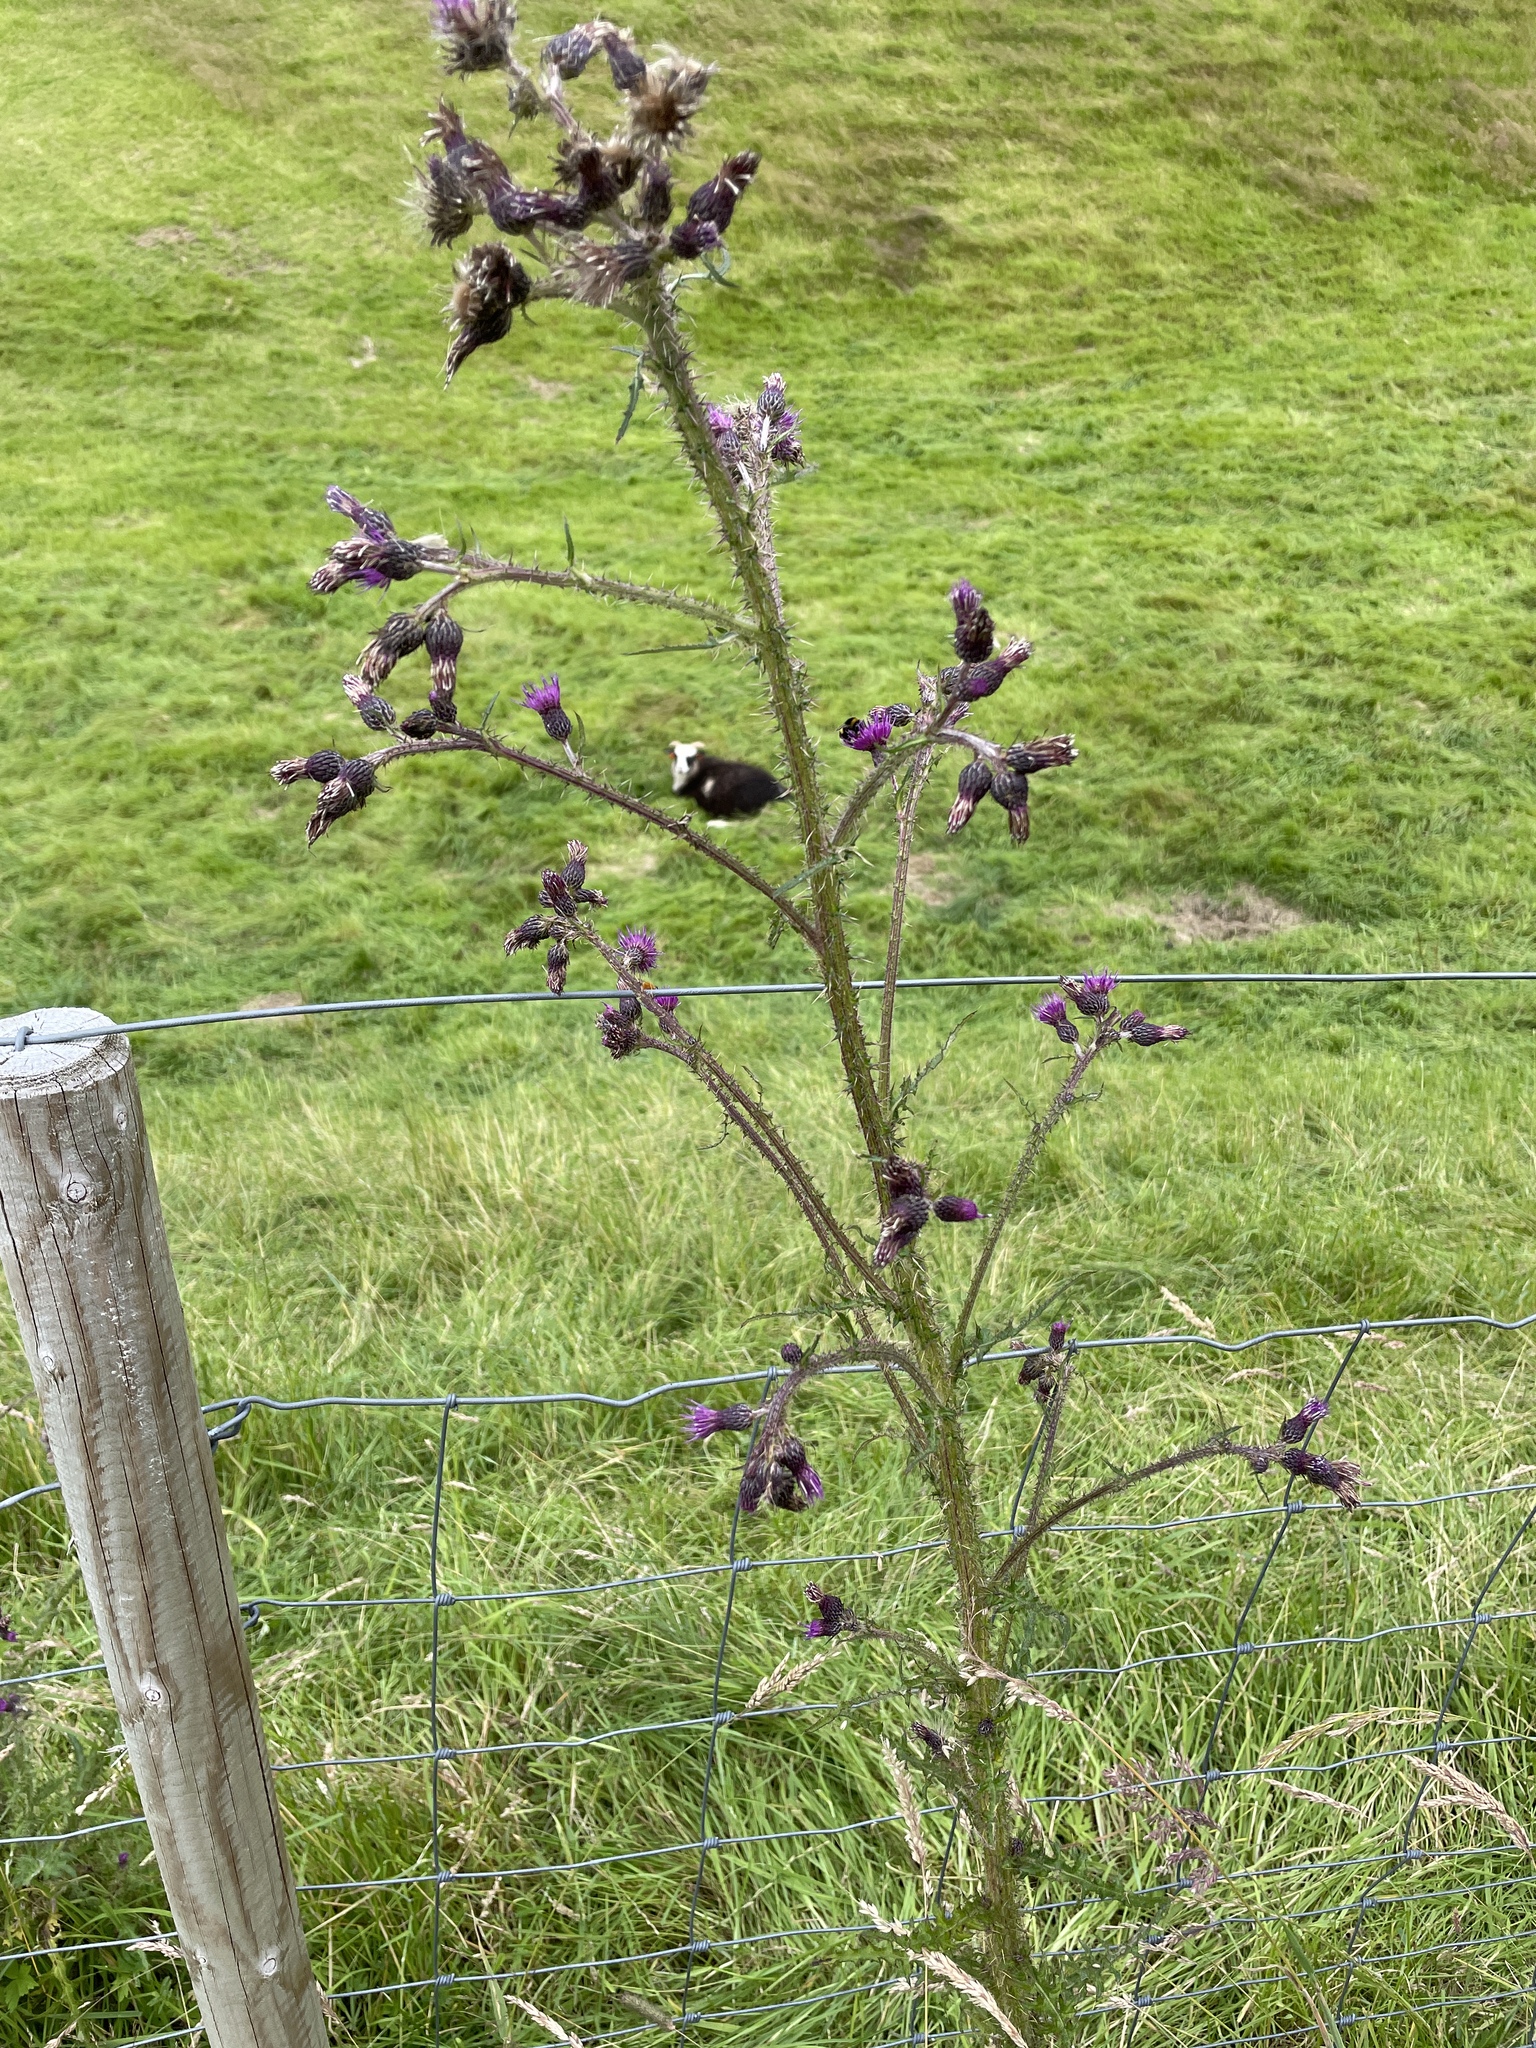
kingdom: Plantae
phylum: Tracheophyta
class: Magnoliopsida
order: Asterales
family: Asteraceae
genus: Cirsium
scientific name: Cirsium palustre
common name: Marsh thistle
